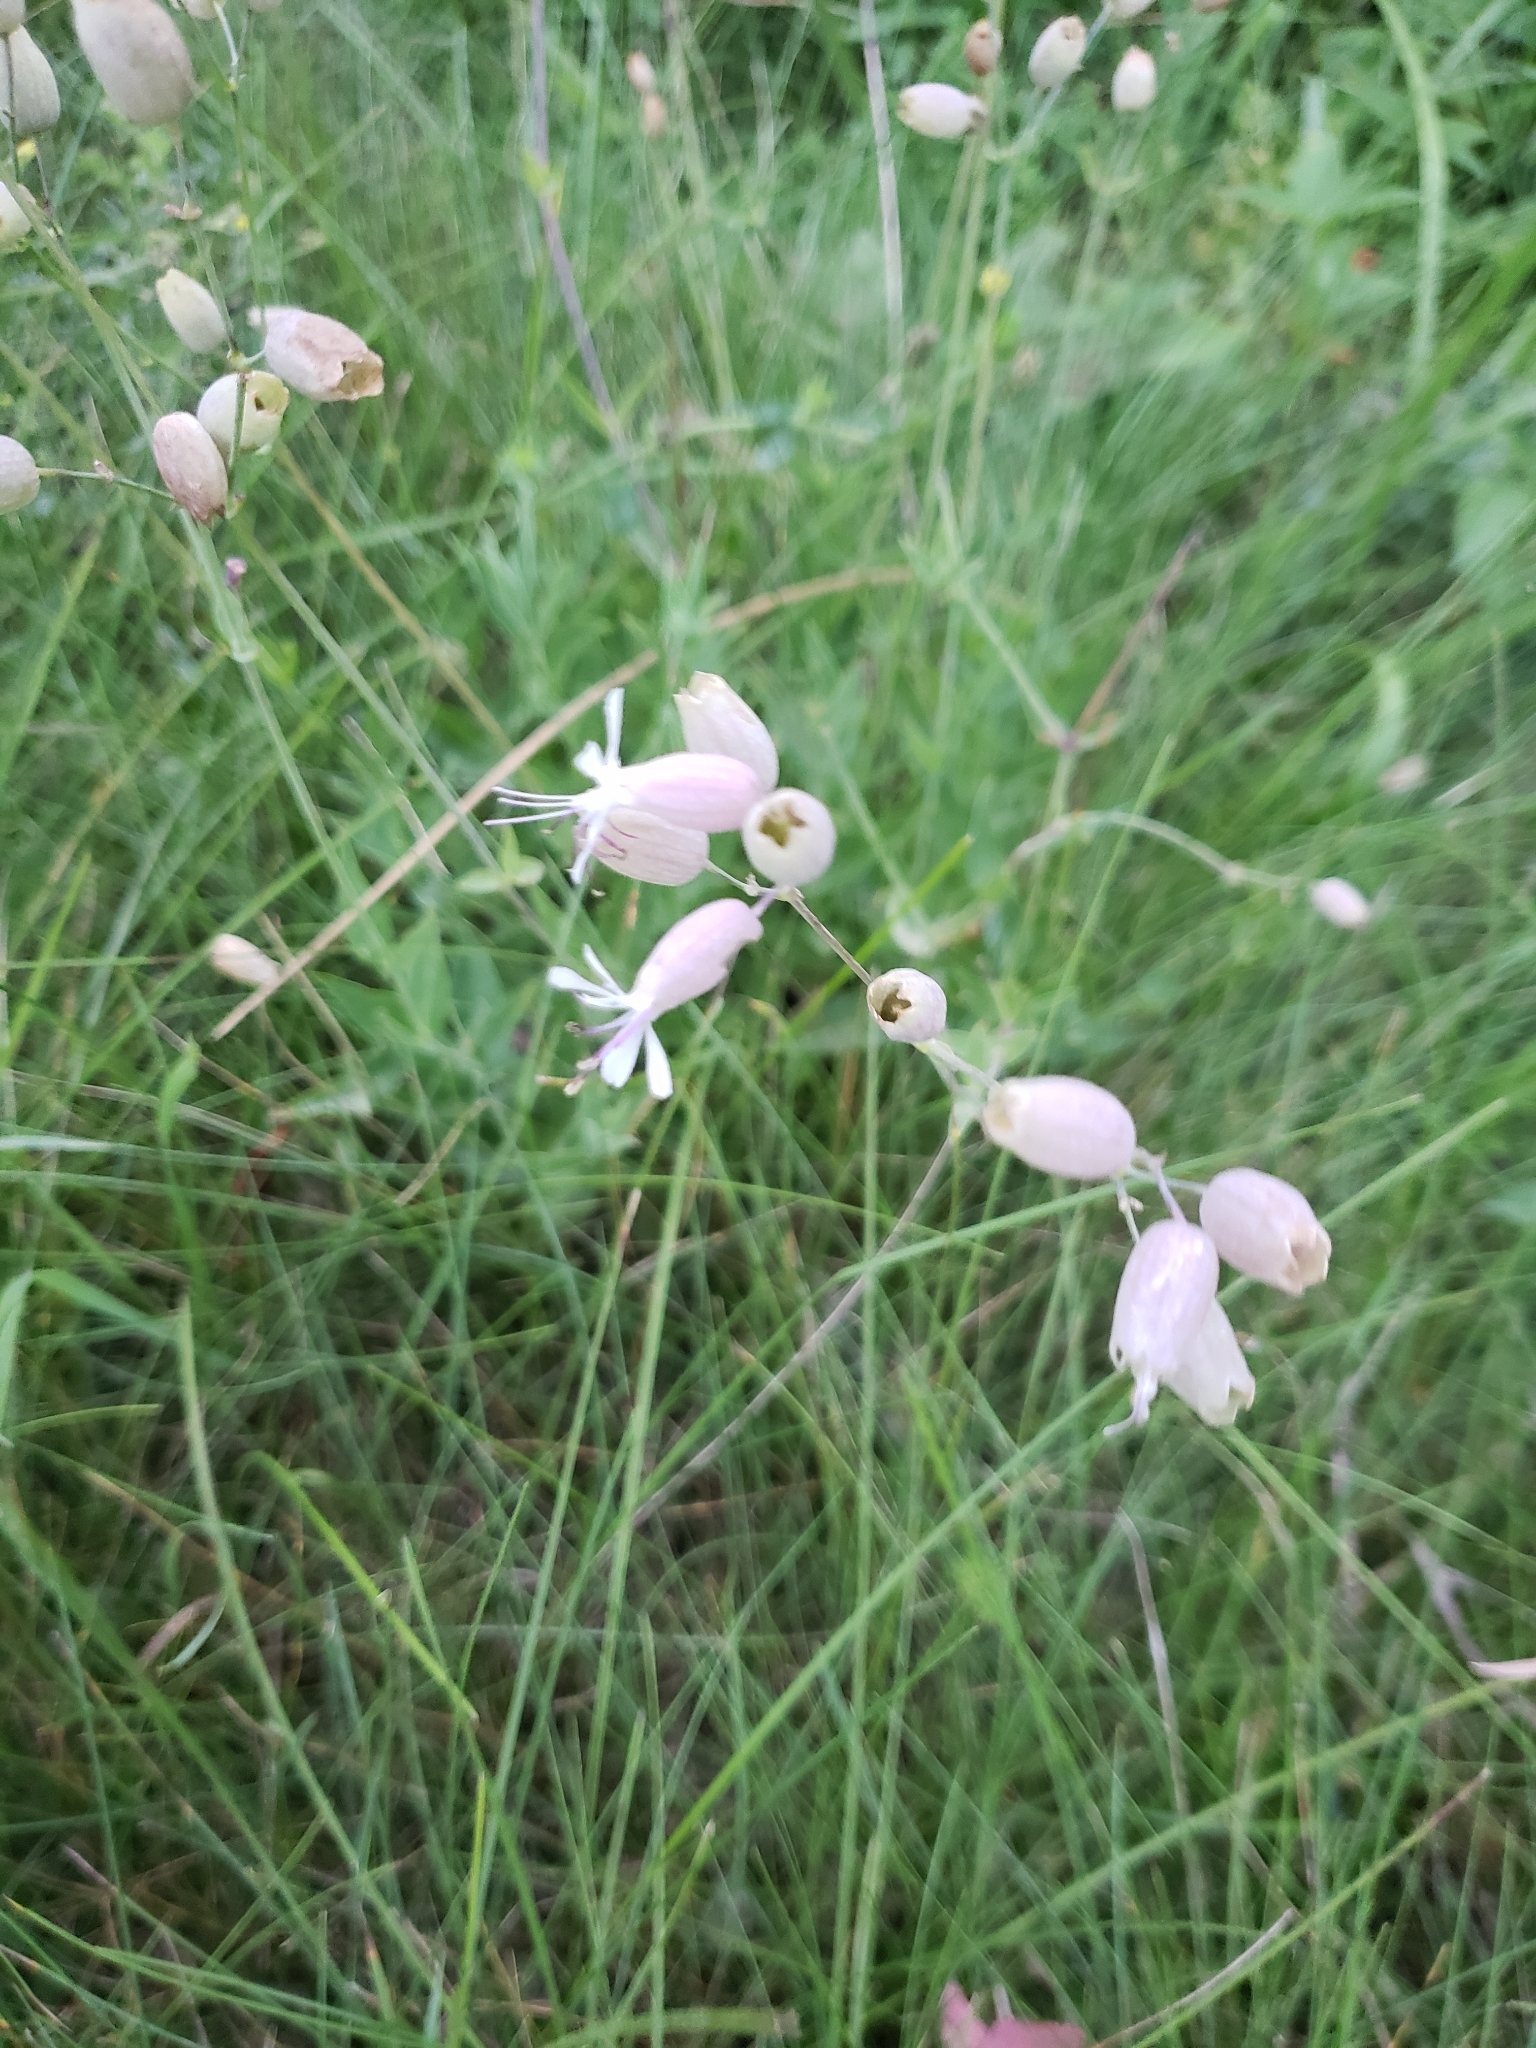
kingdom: Plantae
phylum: Tracheophyta
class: Magnoliopsida
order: Caryophyllales
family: Caryophyllaceae
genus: Silene
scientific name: Silene vulgaris
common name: Bladder campion
